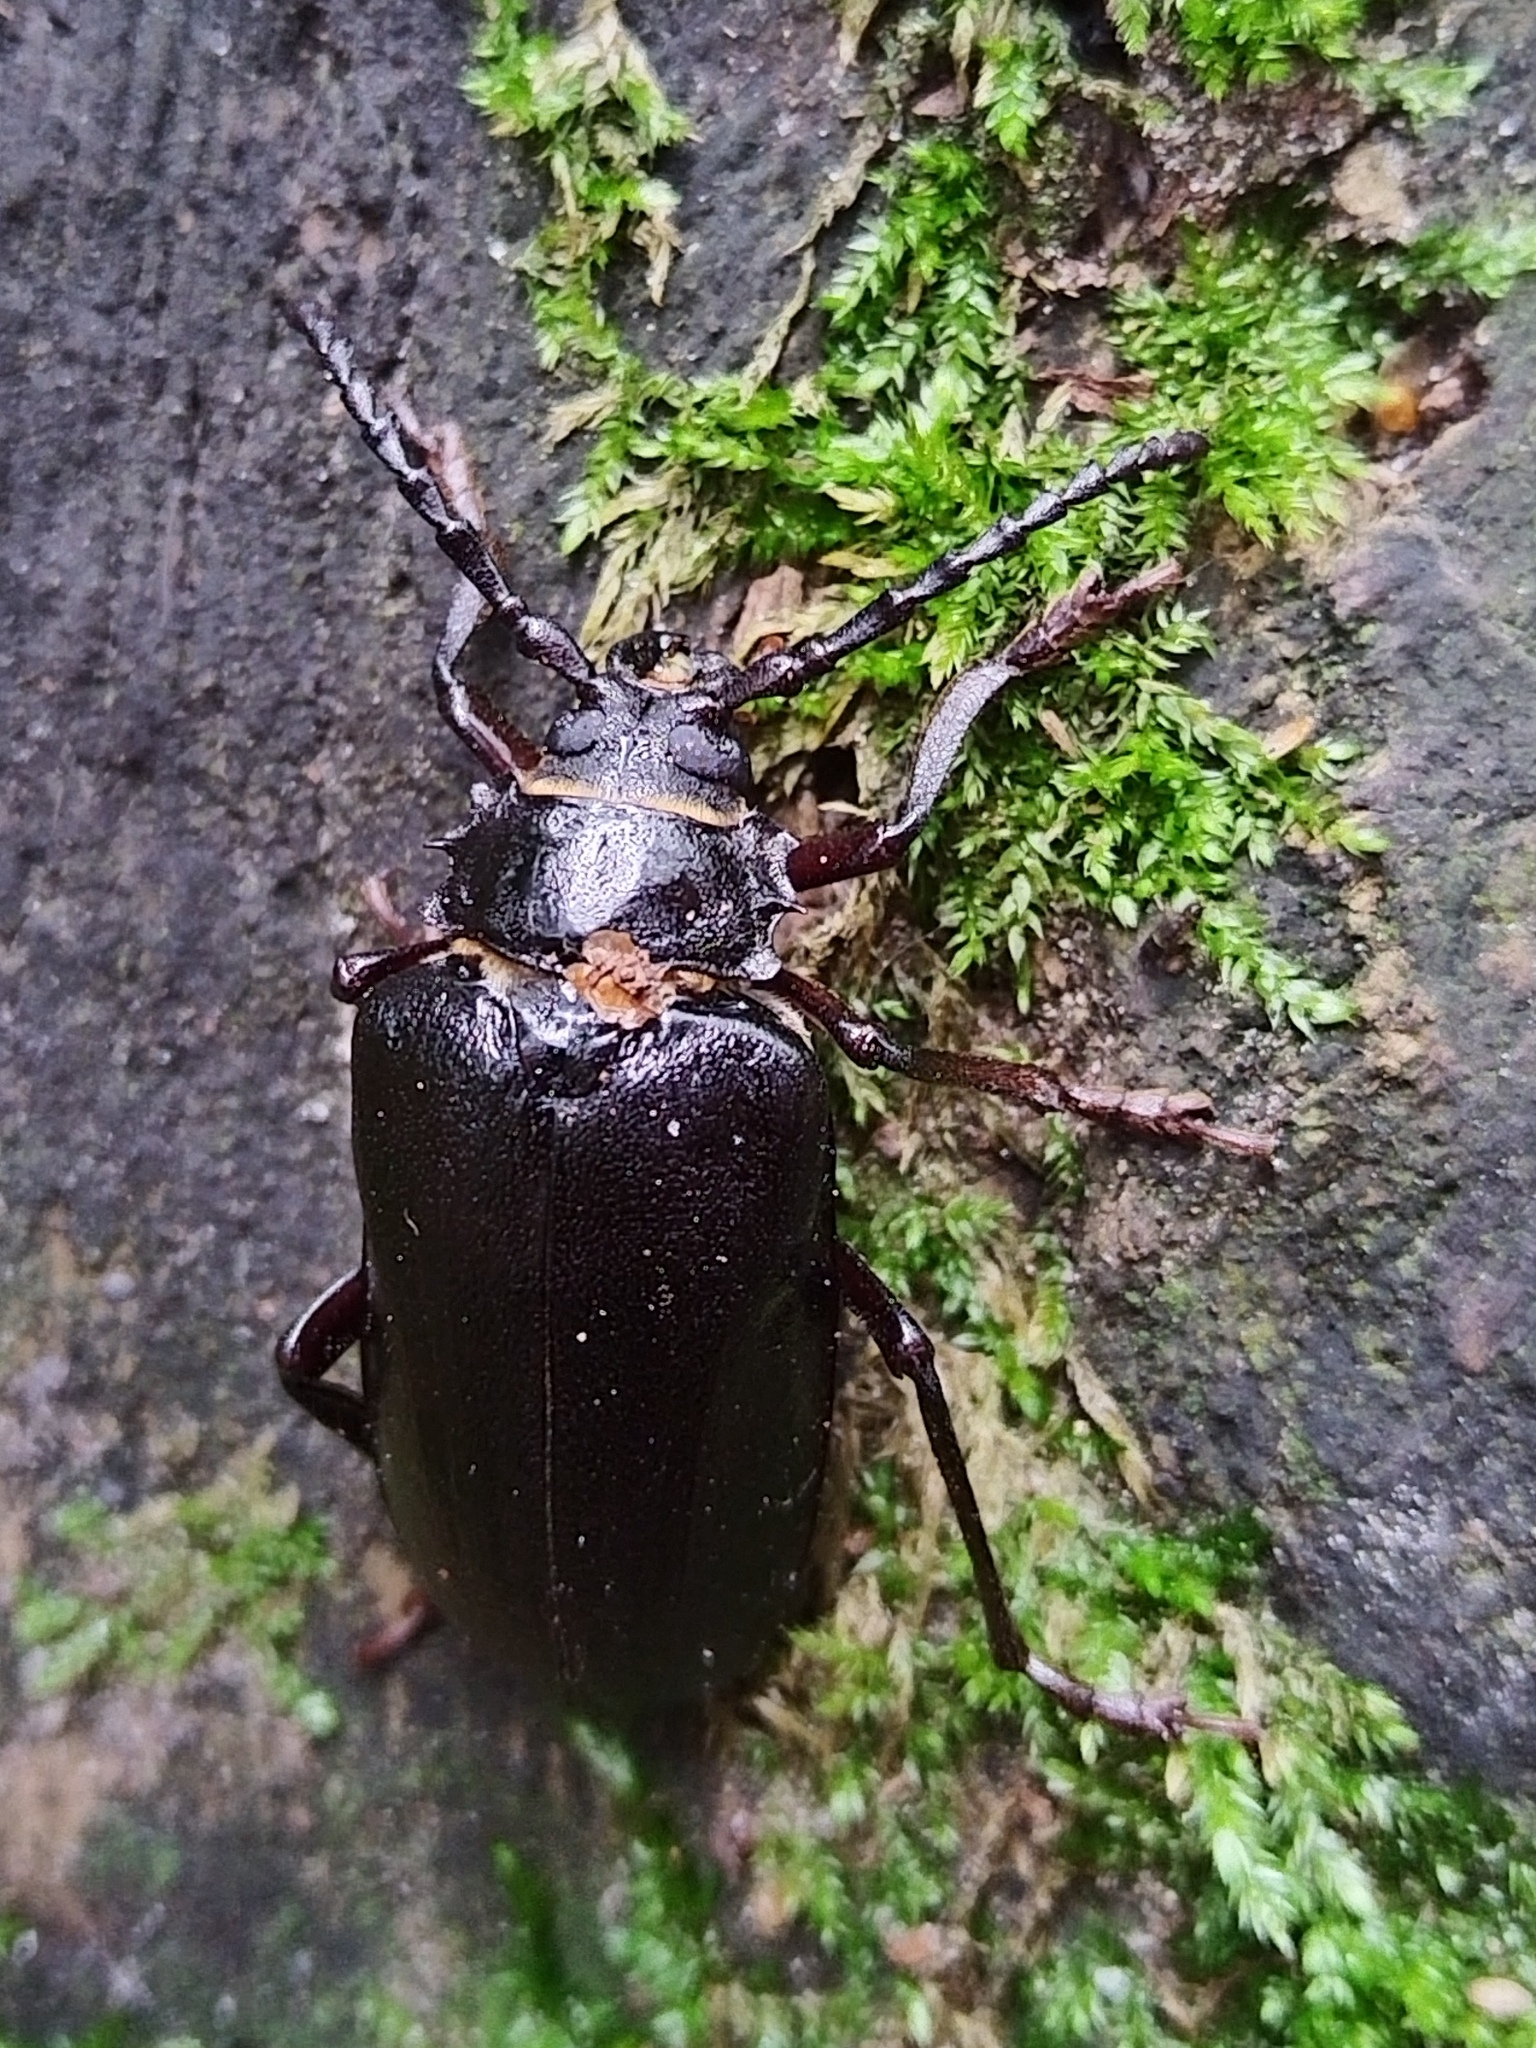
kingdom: Animalia
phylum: Arthropoda
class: Insecta
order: Coleoptera
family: Cerambycidae
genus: Prionus
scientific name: Prionus coriarius
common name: Tanner beetle
